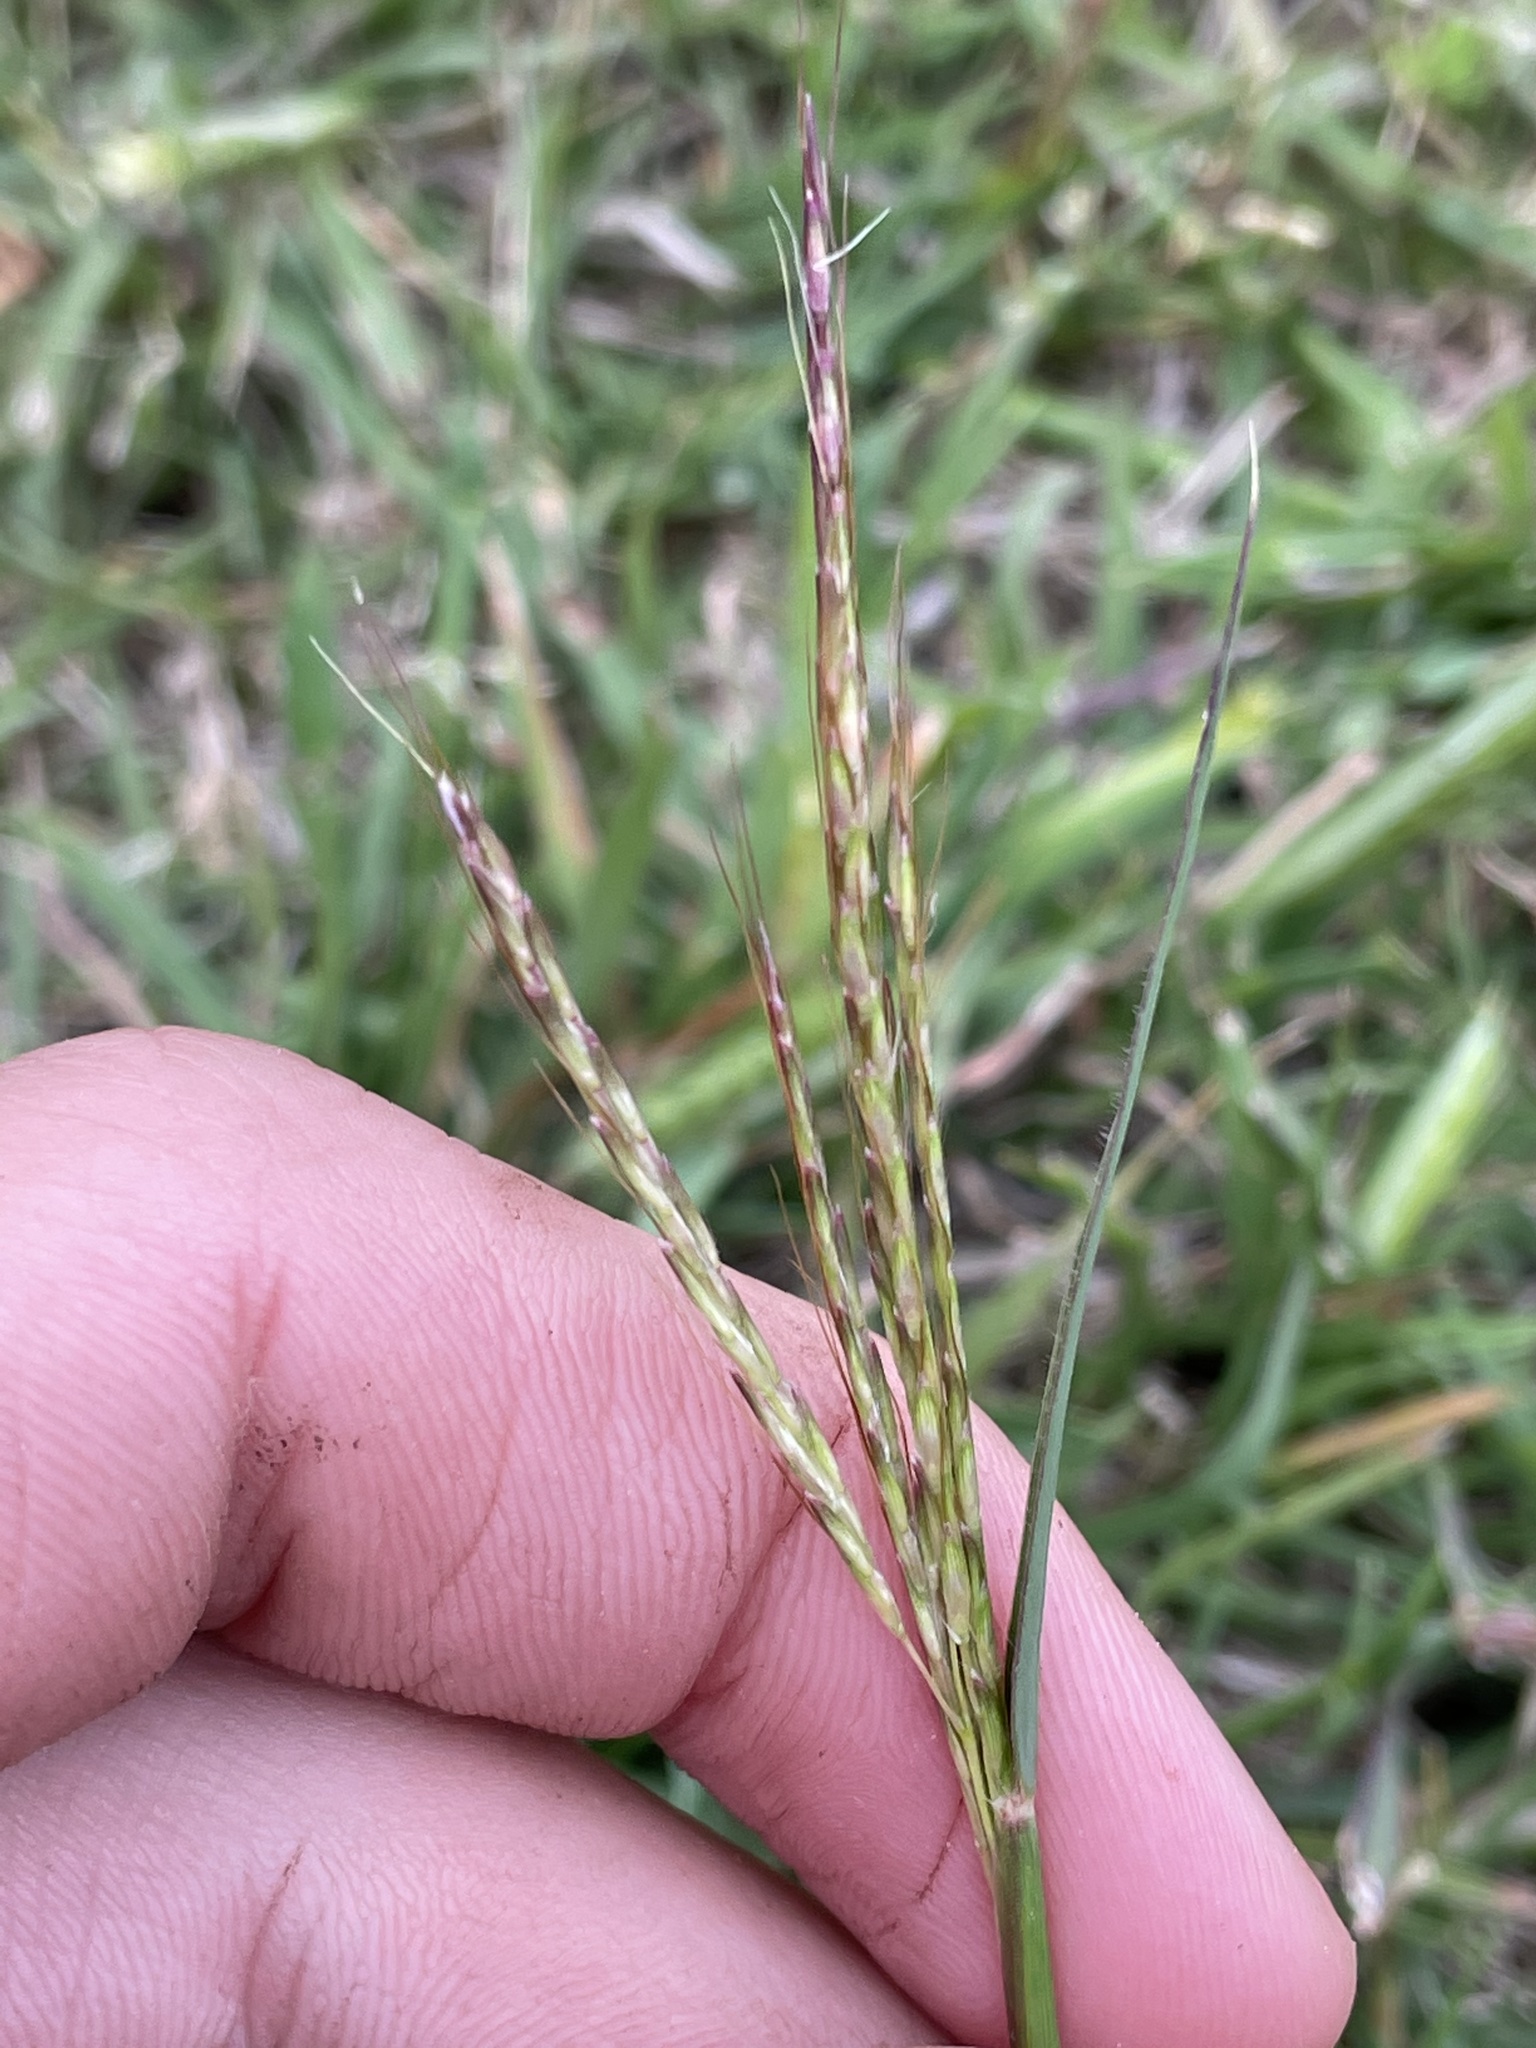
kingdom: Plantae
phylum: Tracheophyta
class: Liliopsida
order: Poales
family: Poaceae
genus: Bothriochloa
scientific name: Bothriochloa ischaemum
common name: Yellow bluestem
